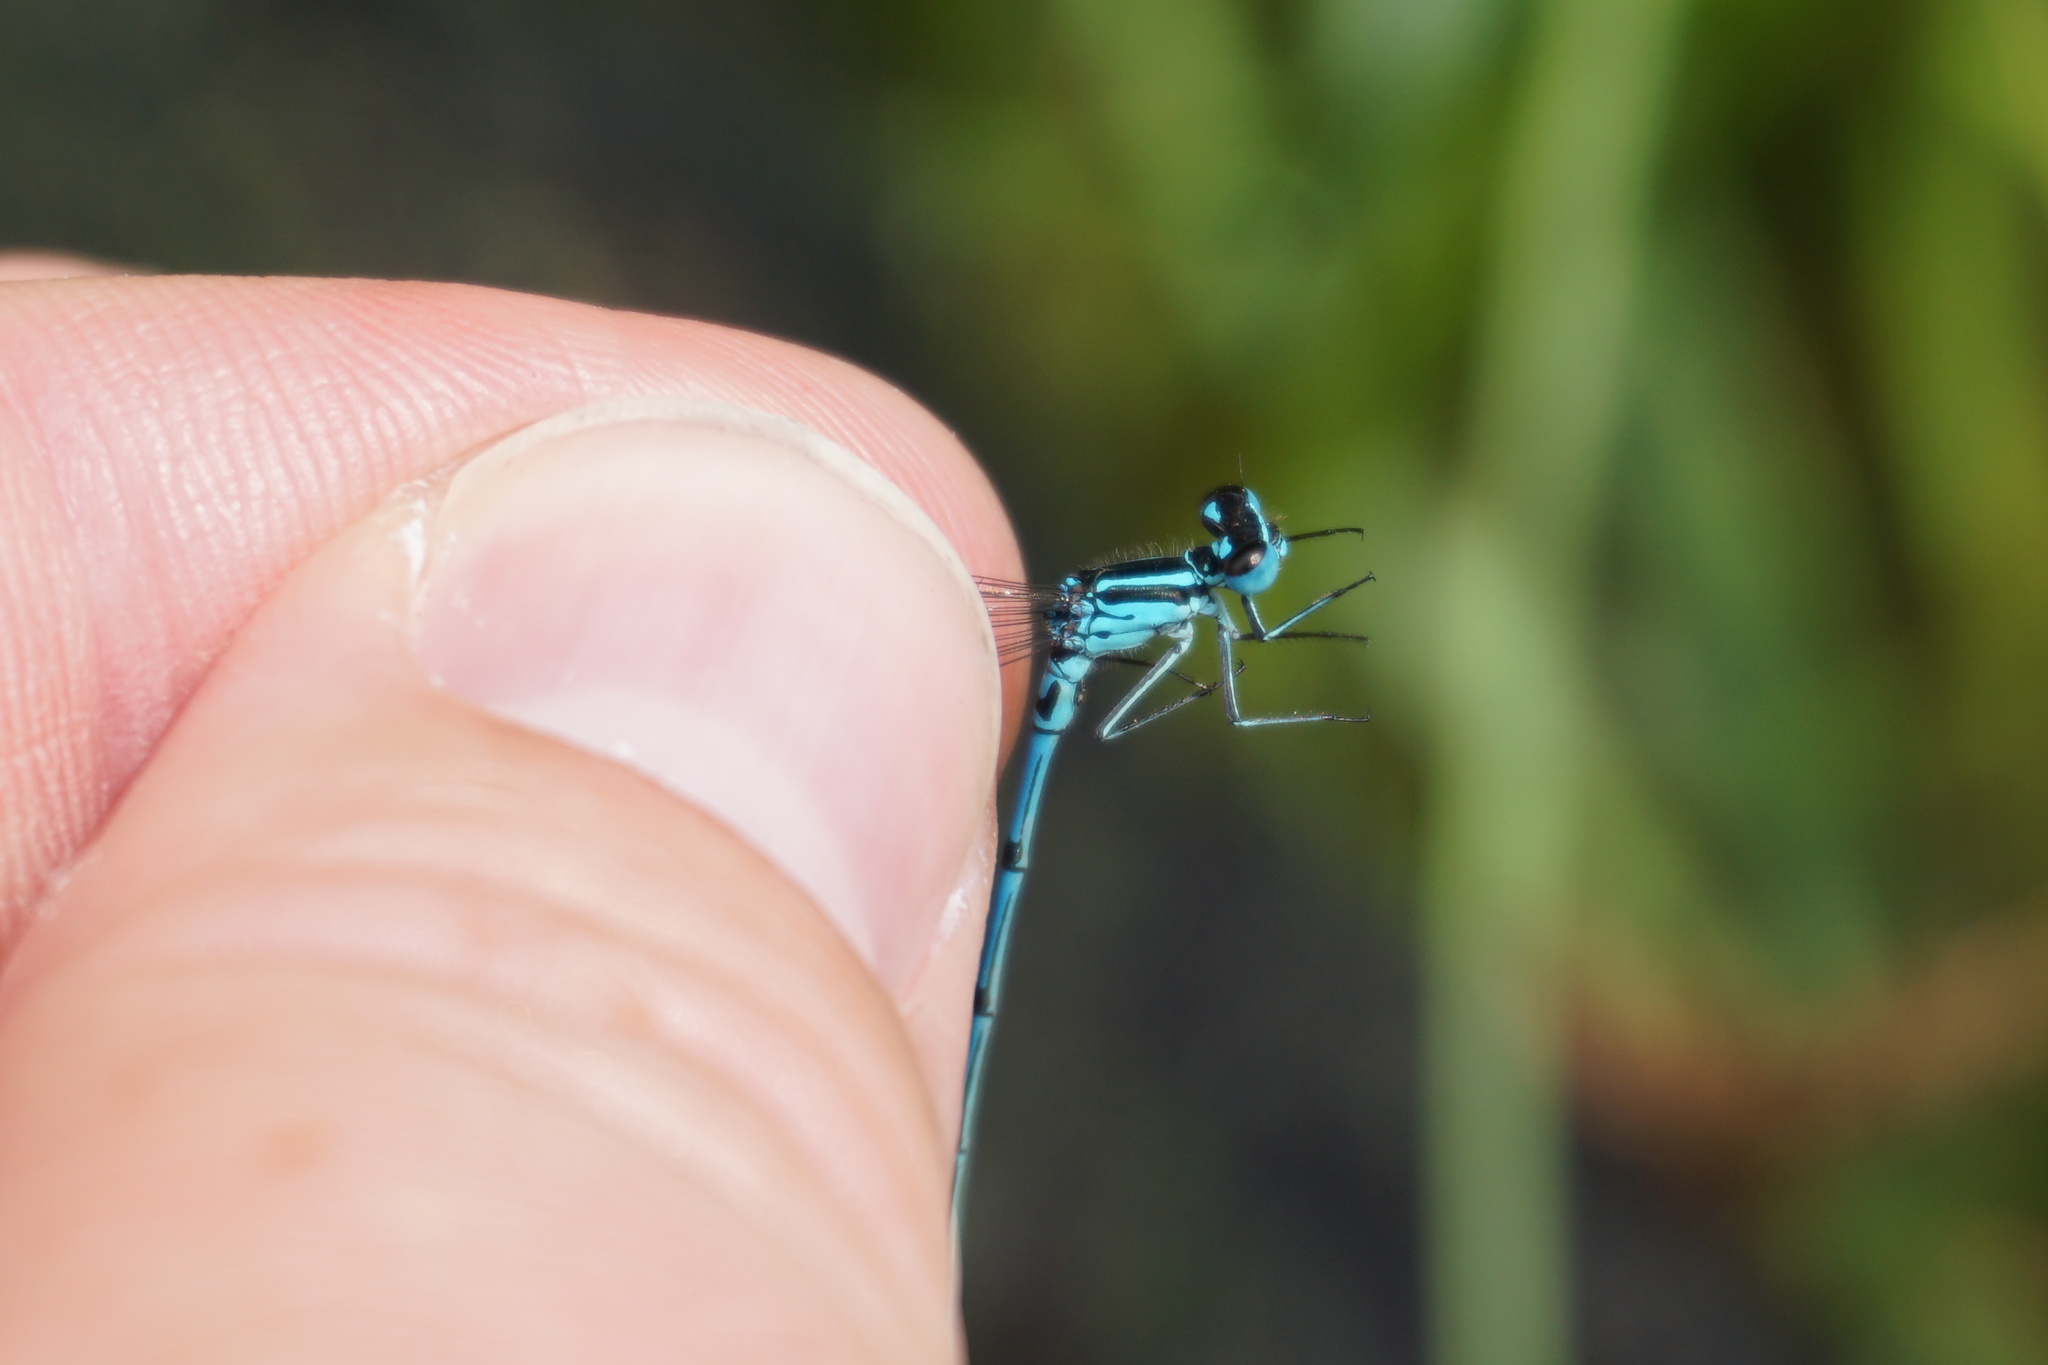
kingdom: Animalia
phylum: Arthropoda
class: Insecta
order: Odonata
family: Coenagrionidae
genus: Coenagrion
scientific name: Coenagrion puella
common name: Azure damselfly
